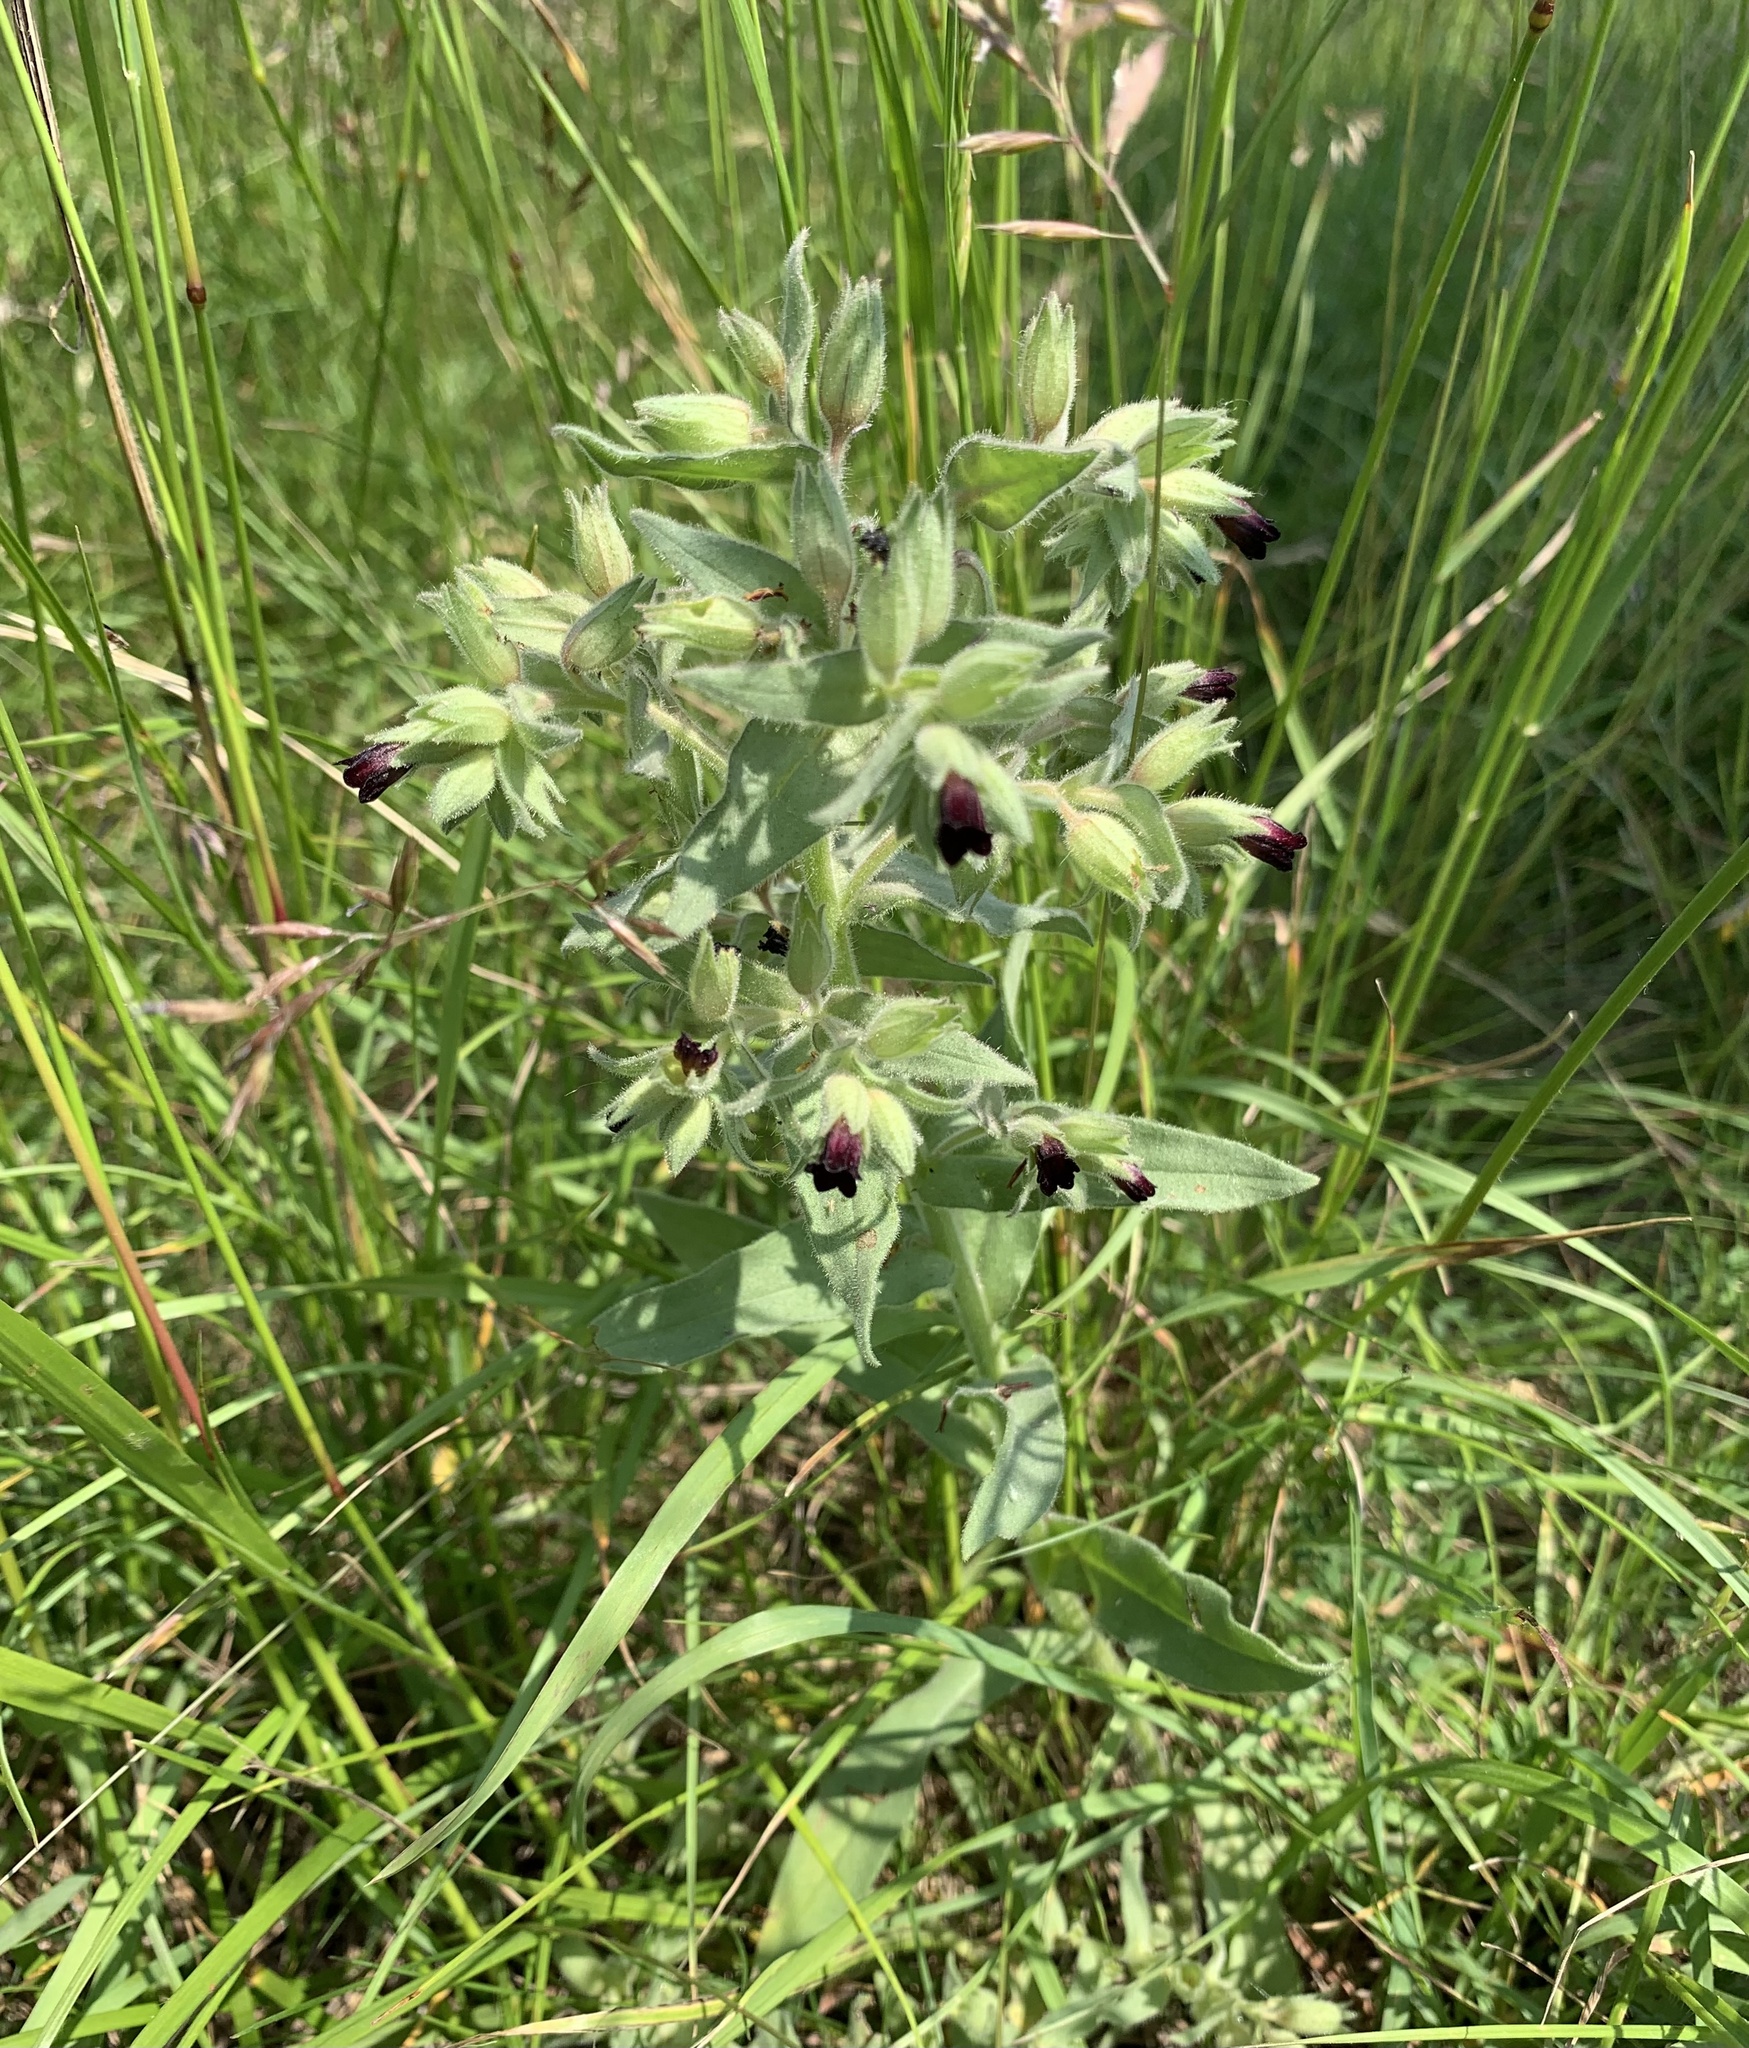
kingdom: Plantae
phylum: Tracheophyta
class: Magnoliopsida
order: Boraginales
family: Boraginaceae
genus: Nonea
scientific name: Nonea pulla
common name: Brown nonea
